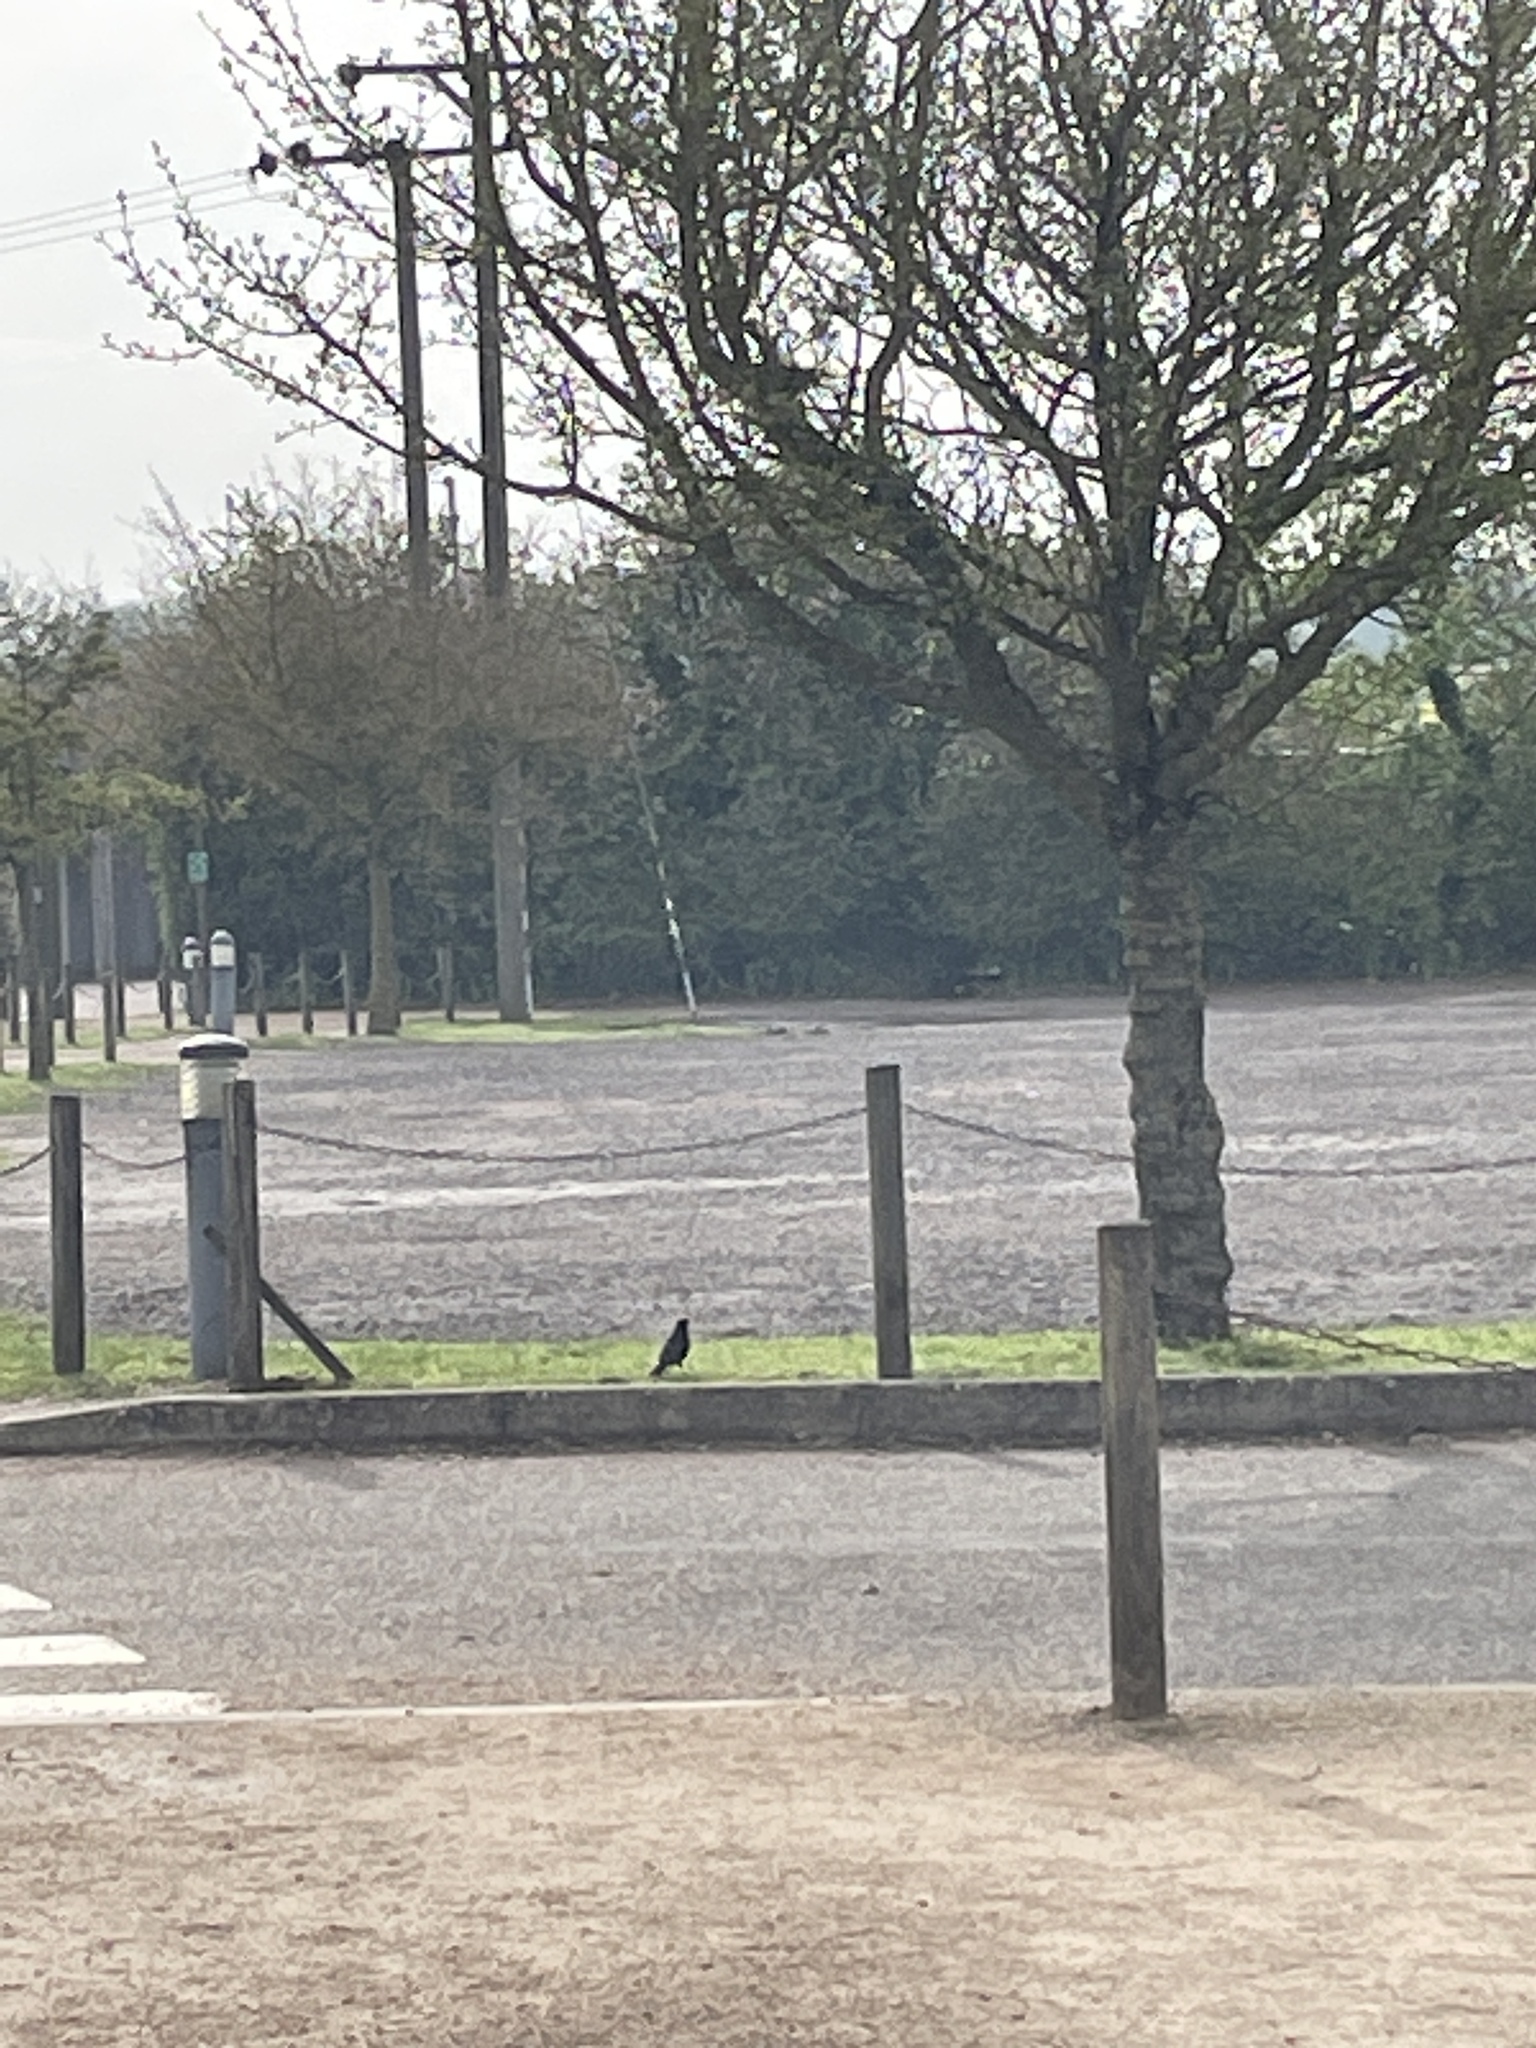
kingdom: Animalia
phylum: Chordata
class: Aves
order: Passeriformes
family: Turdidae
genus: Turdus
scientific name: Turdus merula
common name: Common blackbird
